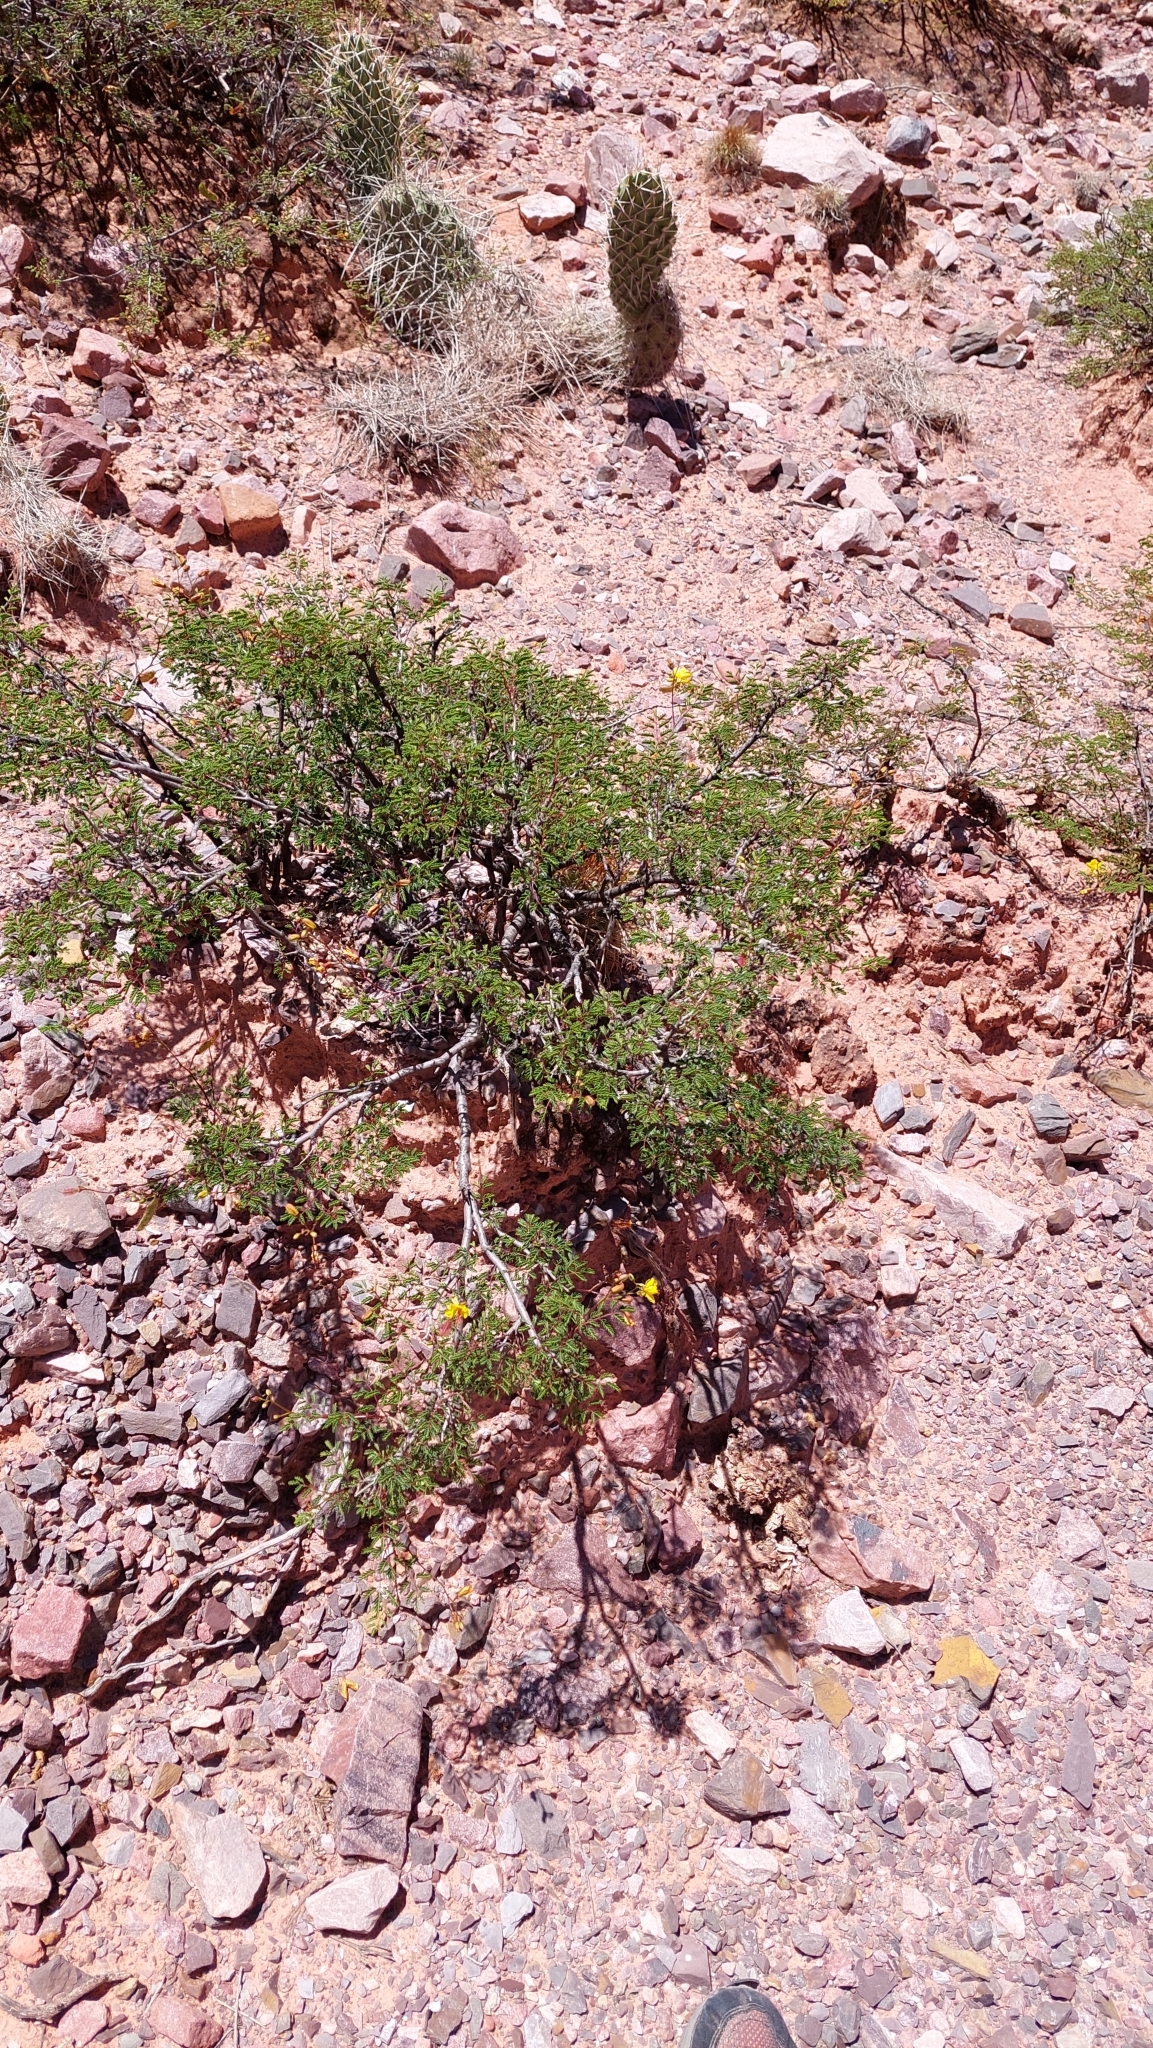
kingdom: Plantae
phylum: Tracheophyta
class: Magnoliopsida
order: Fabales
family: Fabaceae
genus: Arquita
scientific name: Arquita trichocarpa
